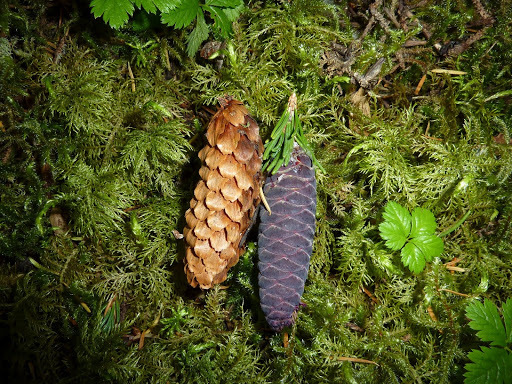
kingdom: Plantae
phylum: Tracheophyta
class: Pinopsida
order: Pinales
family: Pinaceae
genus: Tsuga
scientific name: Tsuga mertensiana
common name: Mountain hemlock
